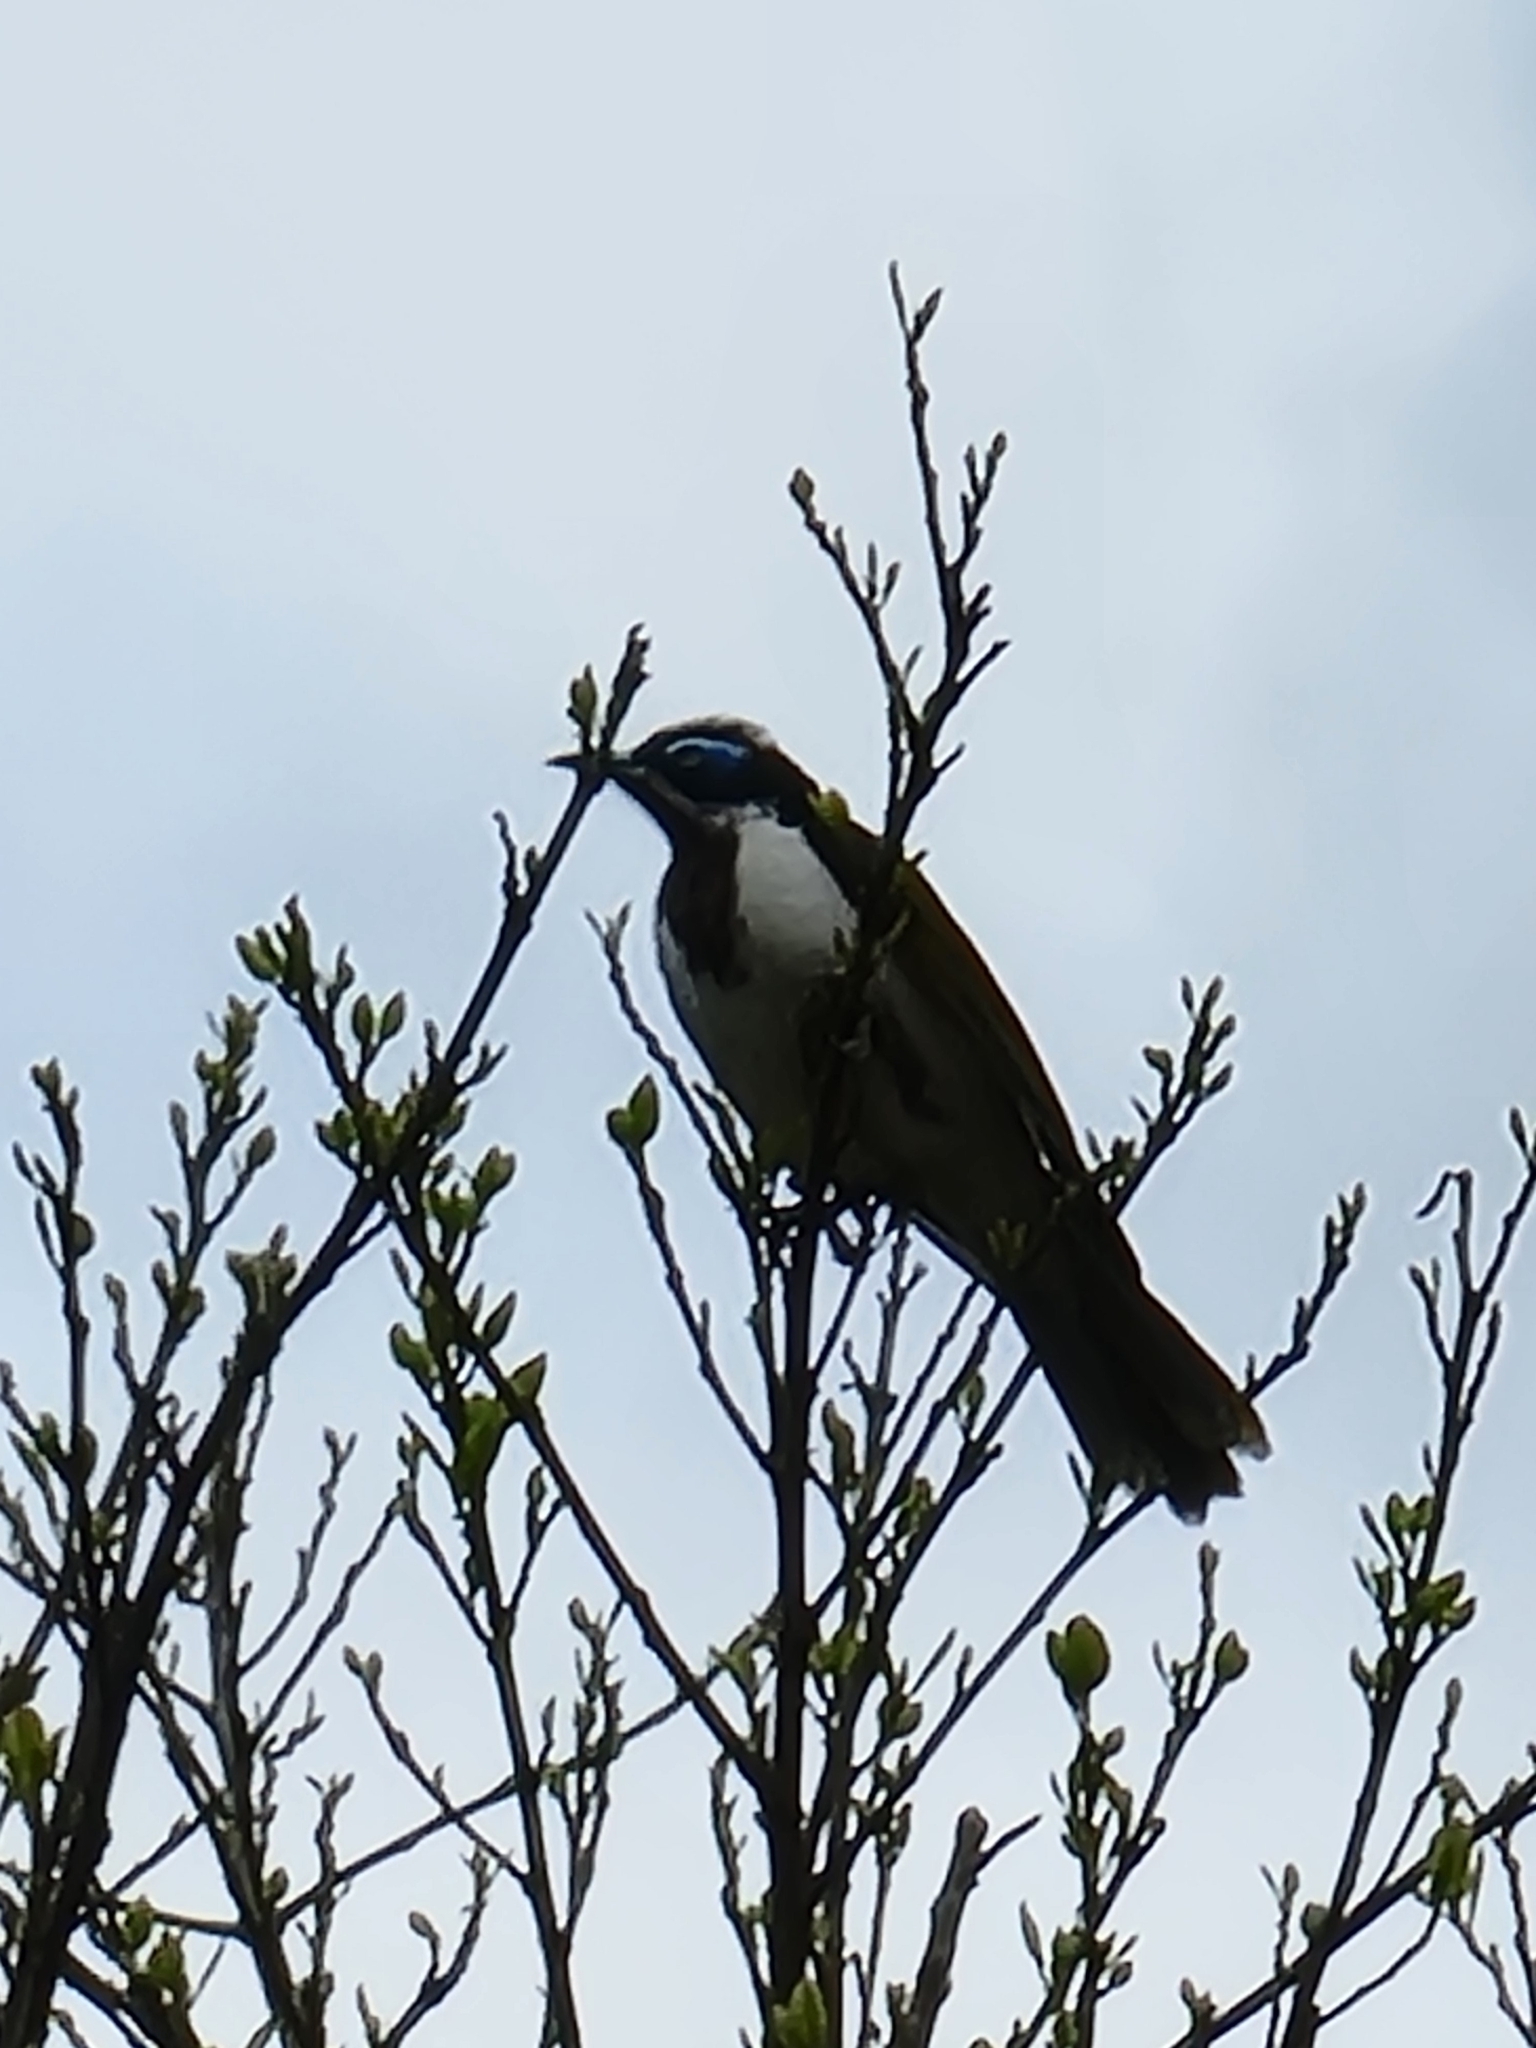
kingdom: Animalia
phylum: Chordata
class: Aves
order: Passeriformes
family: Meliphagidae
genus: Entomyzon
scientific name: Entomyzon cyanotis
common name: Blue-faced honeyeater
